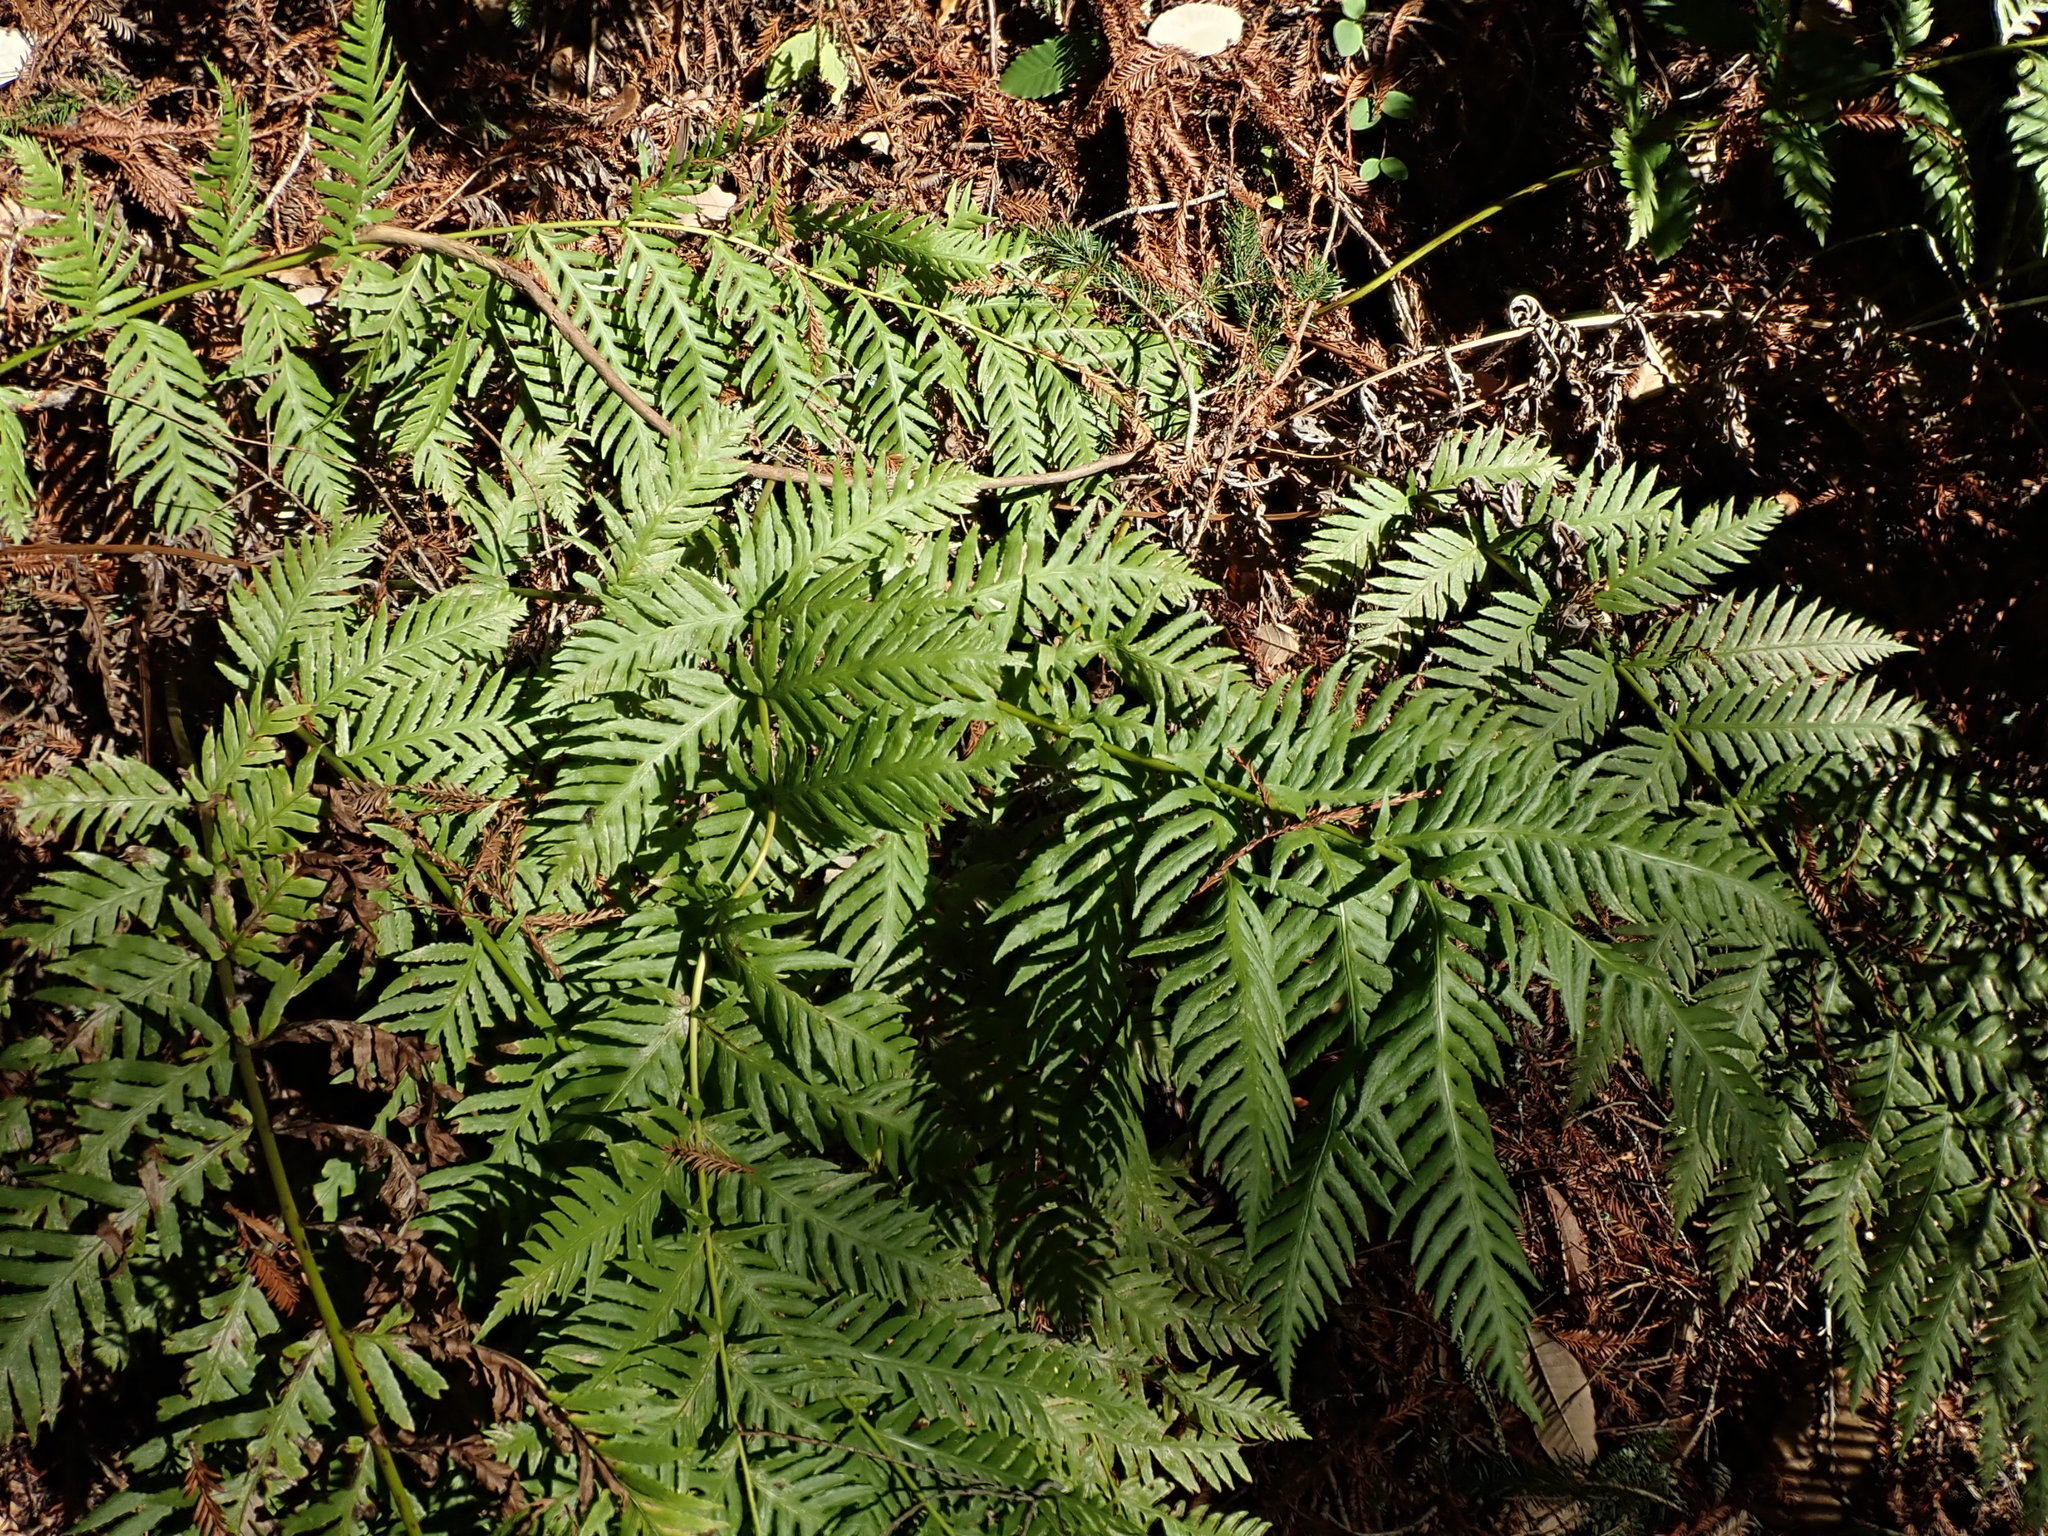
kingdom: Plantae
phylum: Tracheophyta
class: Polypodiopsida
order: Polypodiales
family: Blechnaceae
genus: Woodwardia
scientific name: Woodwardia fimbriata
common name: Giant chain fern
